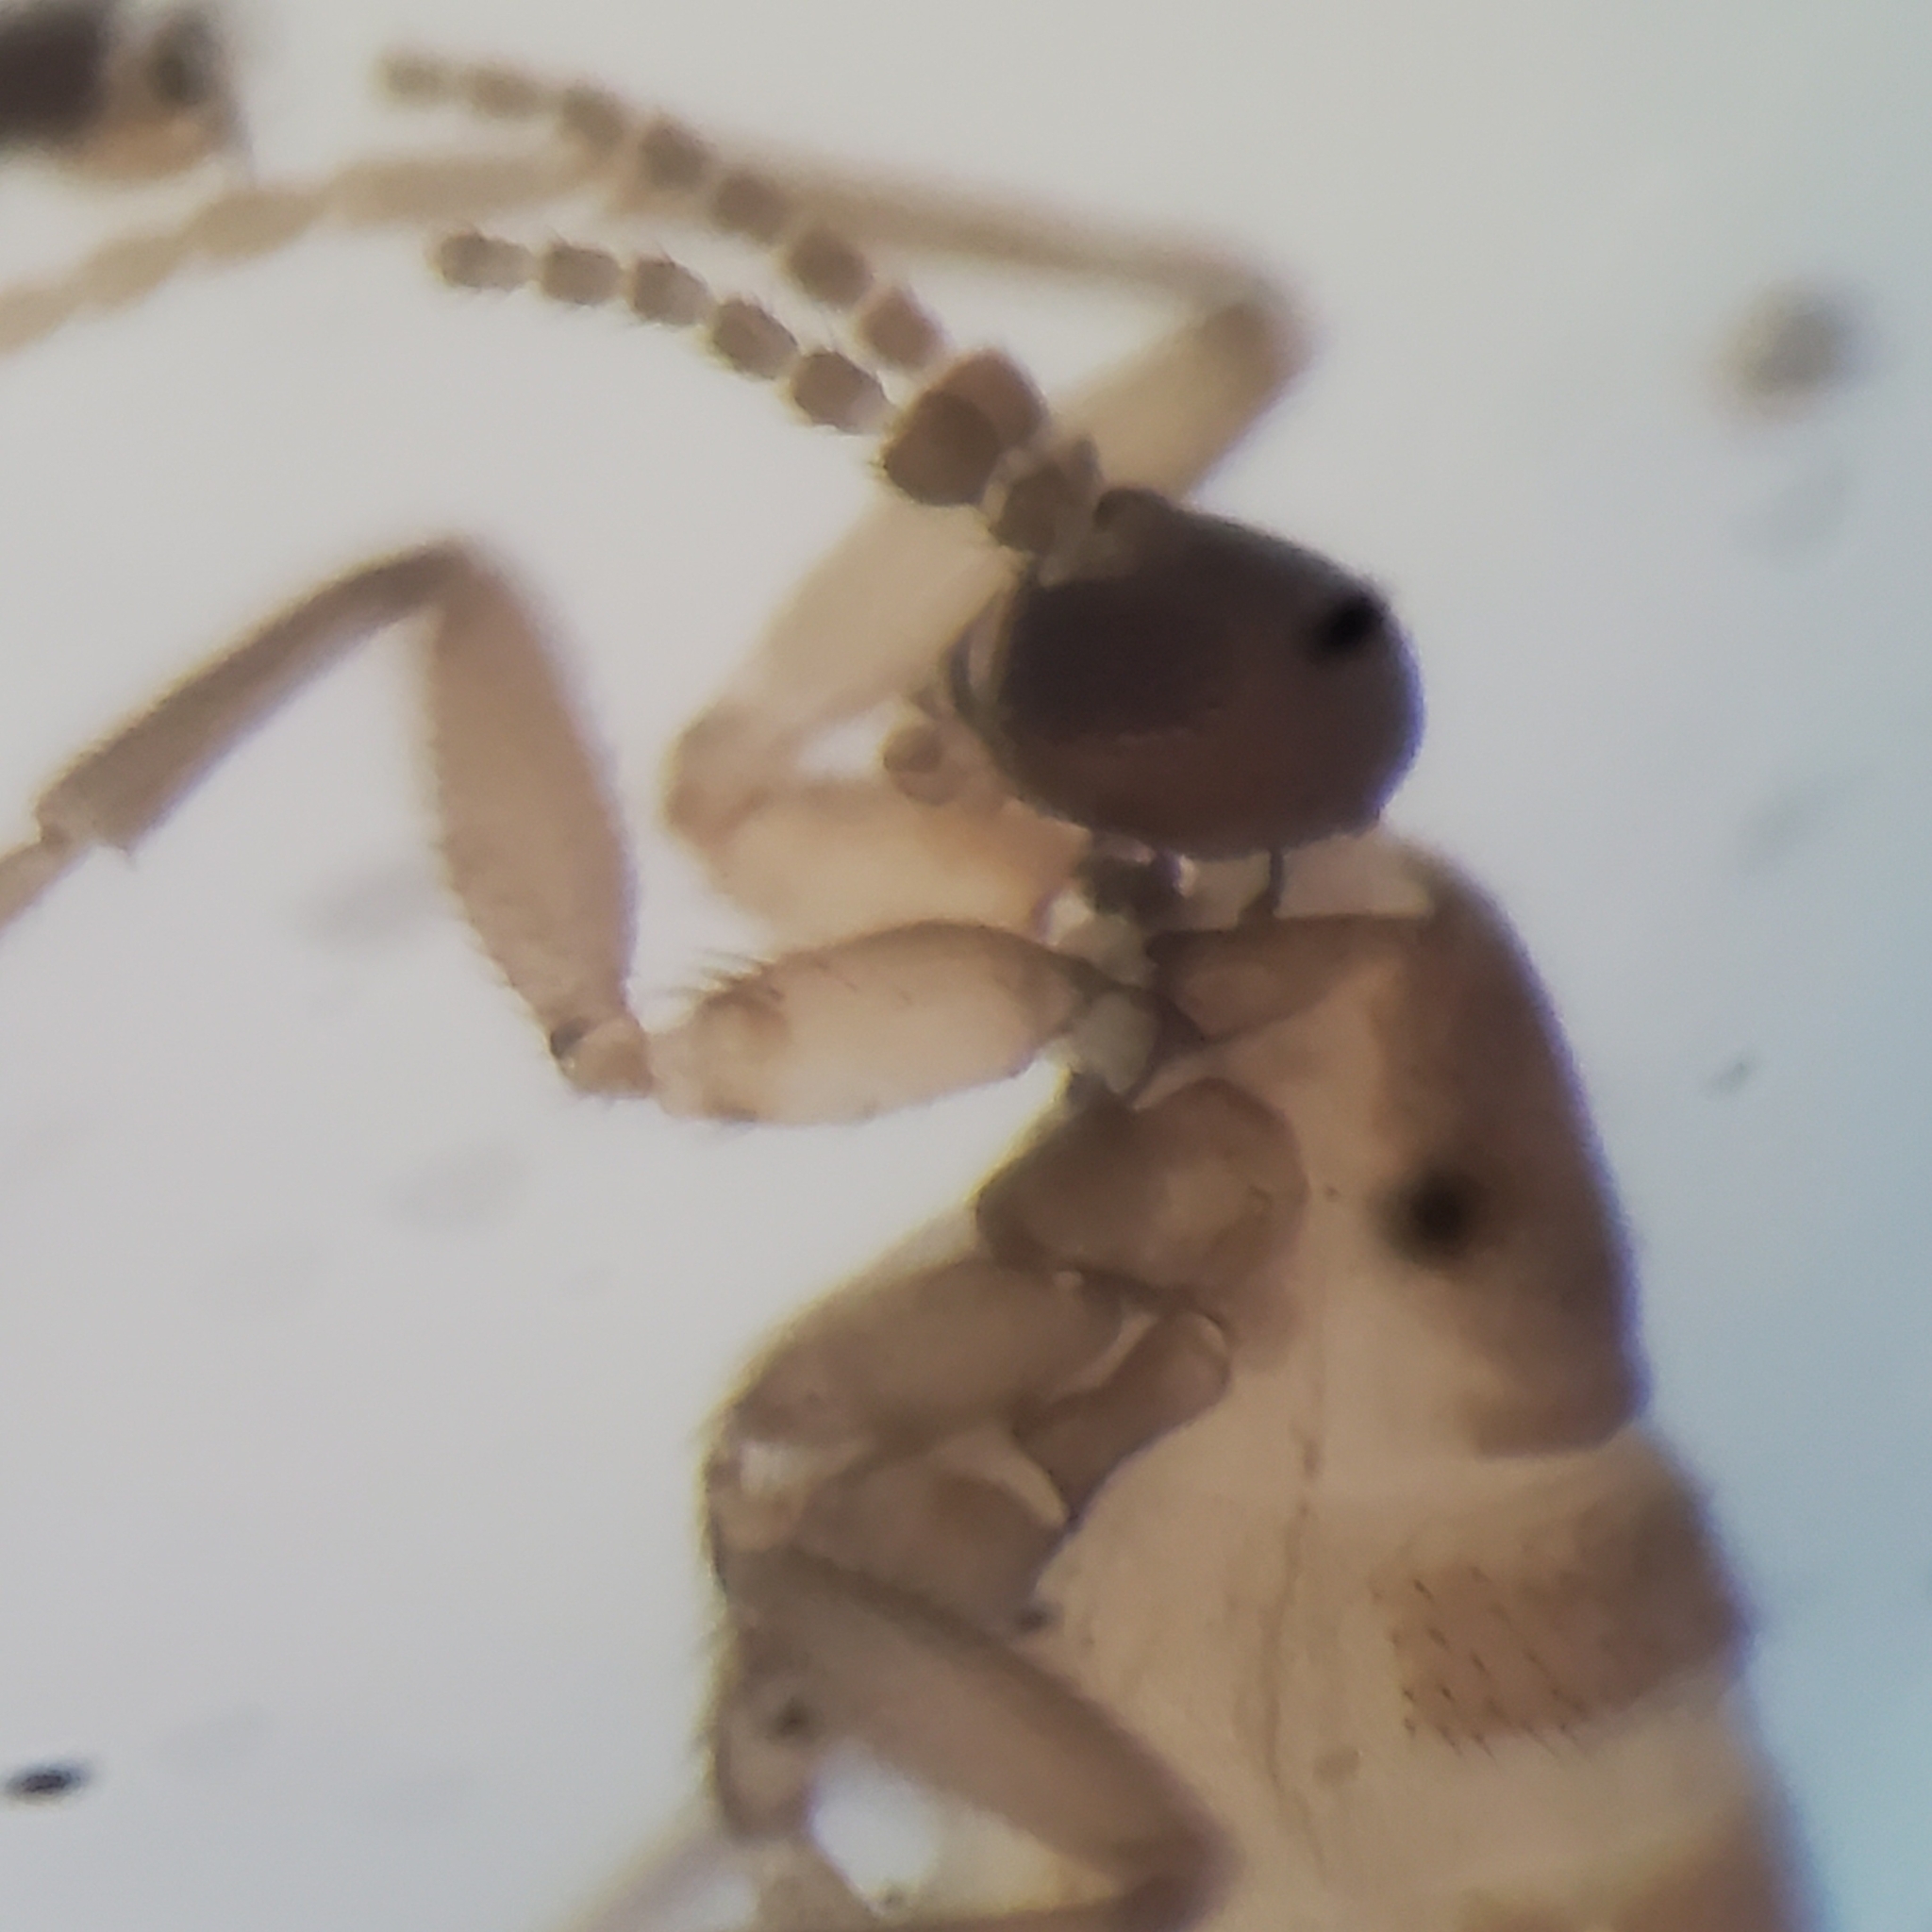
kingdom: Animalia
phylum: Arthropoda
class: Insecta
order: Diptera
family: Sciaridae
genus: Pnyxia
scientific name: Pnyxia scabiei
